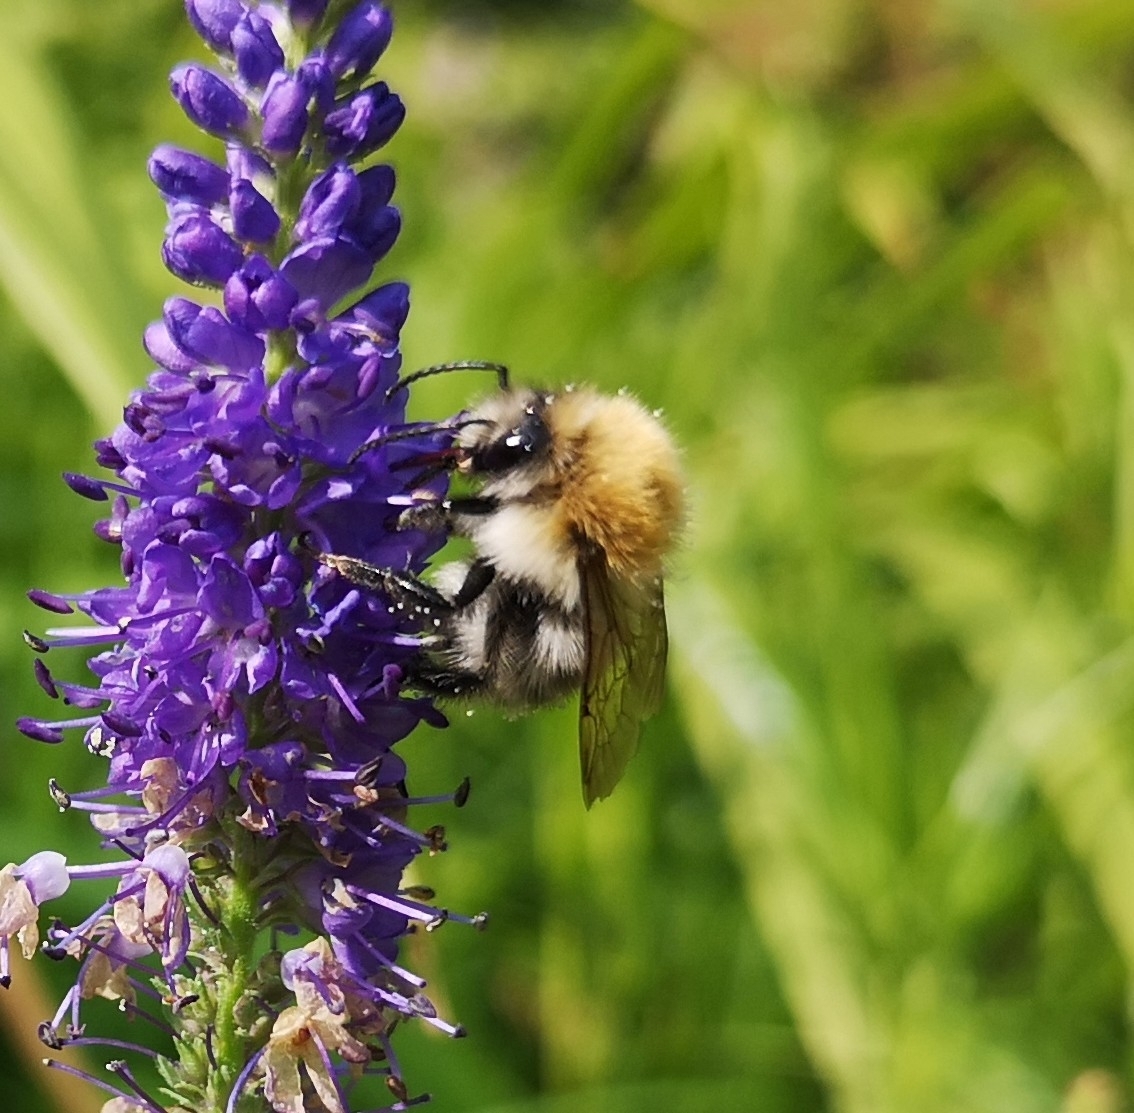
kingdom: Animalia
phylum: Arthropoda
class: Insecta
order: Hymenoptera
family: Apidae
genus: Bombus
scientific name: Bombus pascuorum
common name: Common carder bee
